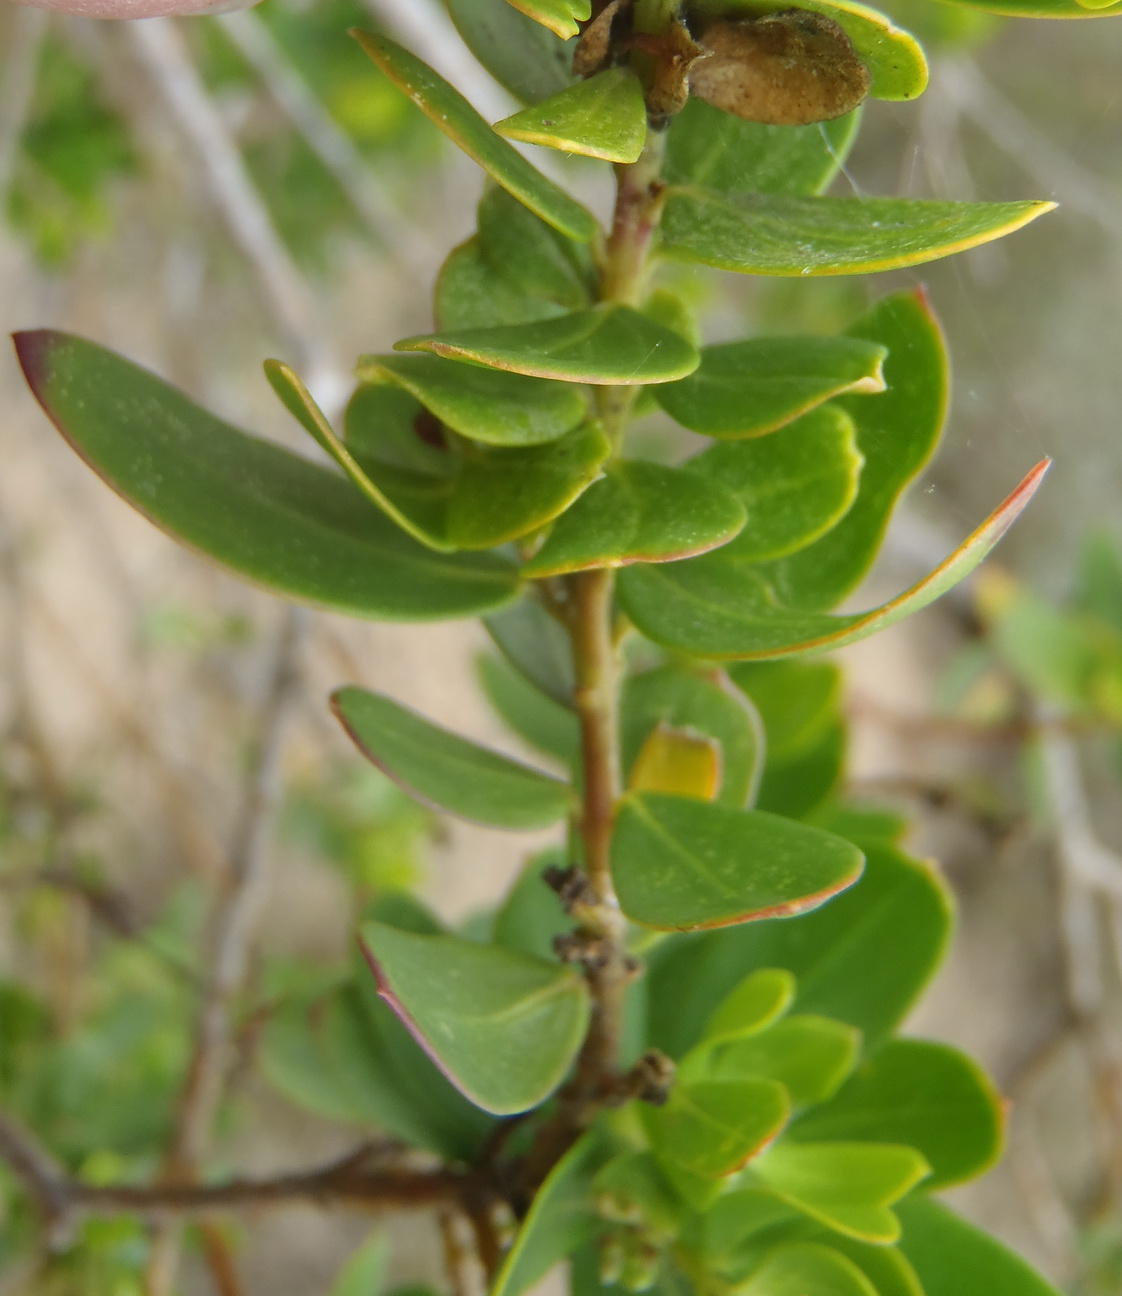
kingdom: Plantae
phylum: Tracheophyta
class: Magnoliopsida
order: Fabales
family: Polygalaceae
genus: Polygala
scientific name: Polygala myrtifolia
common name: Myrtle-leaf milkwort
